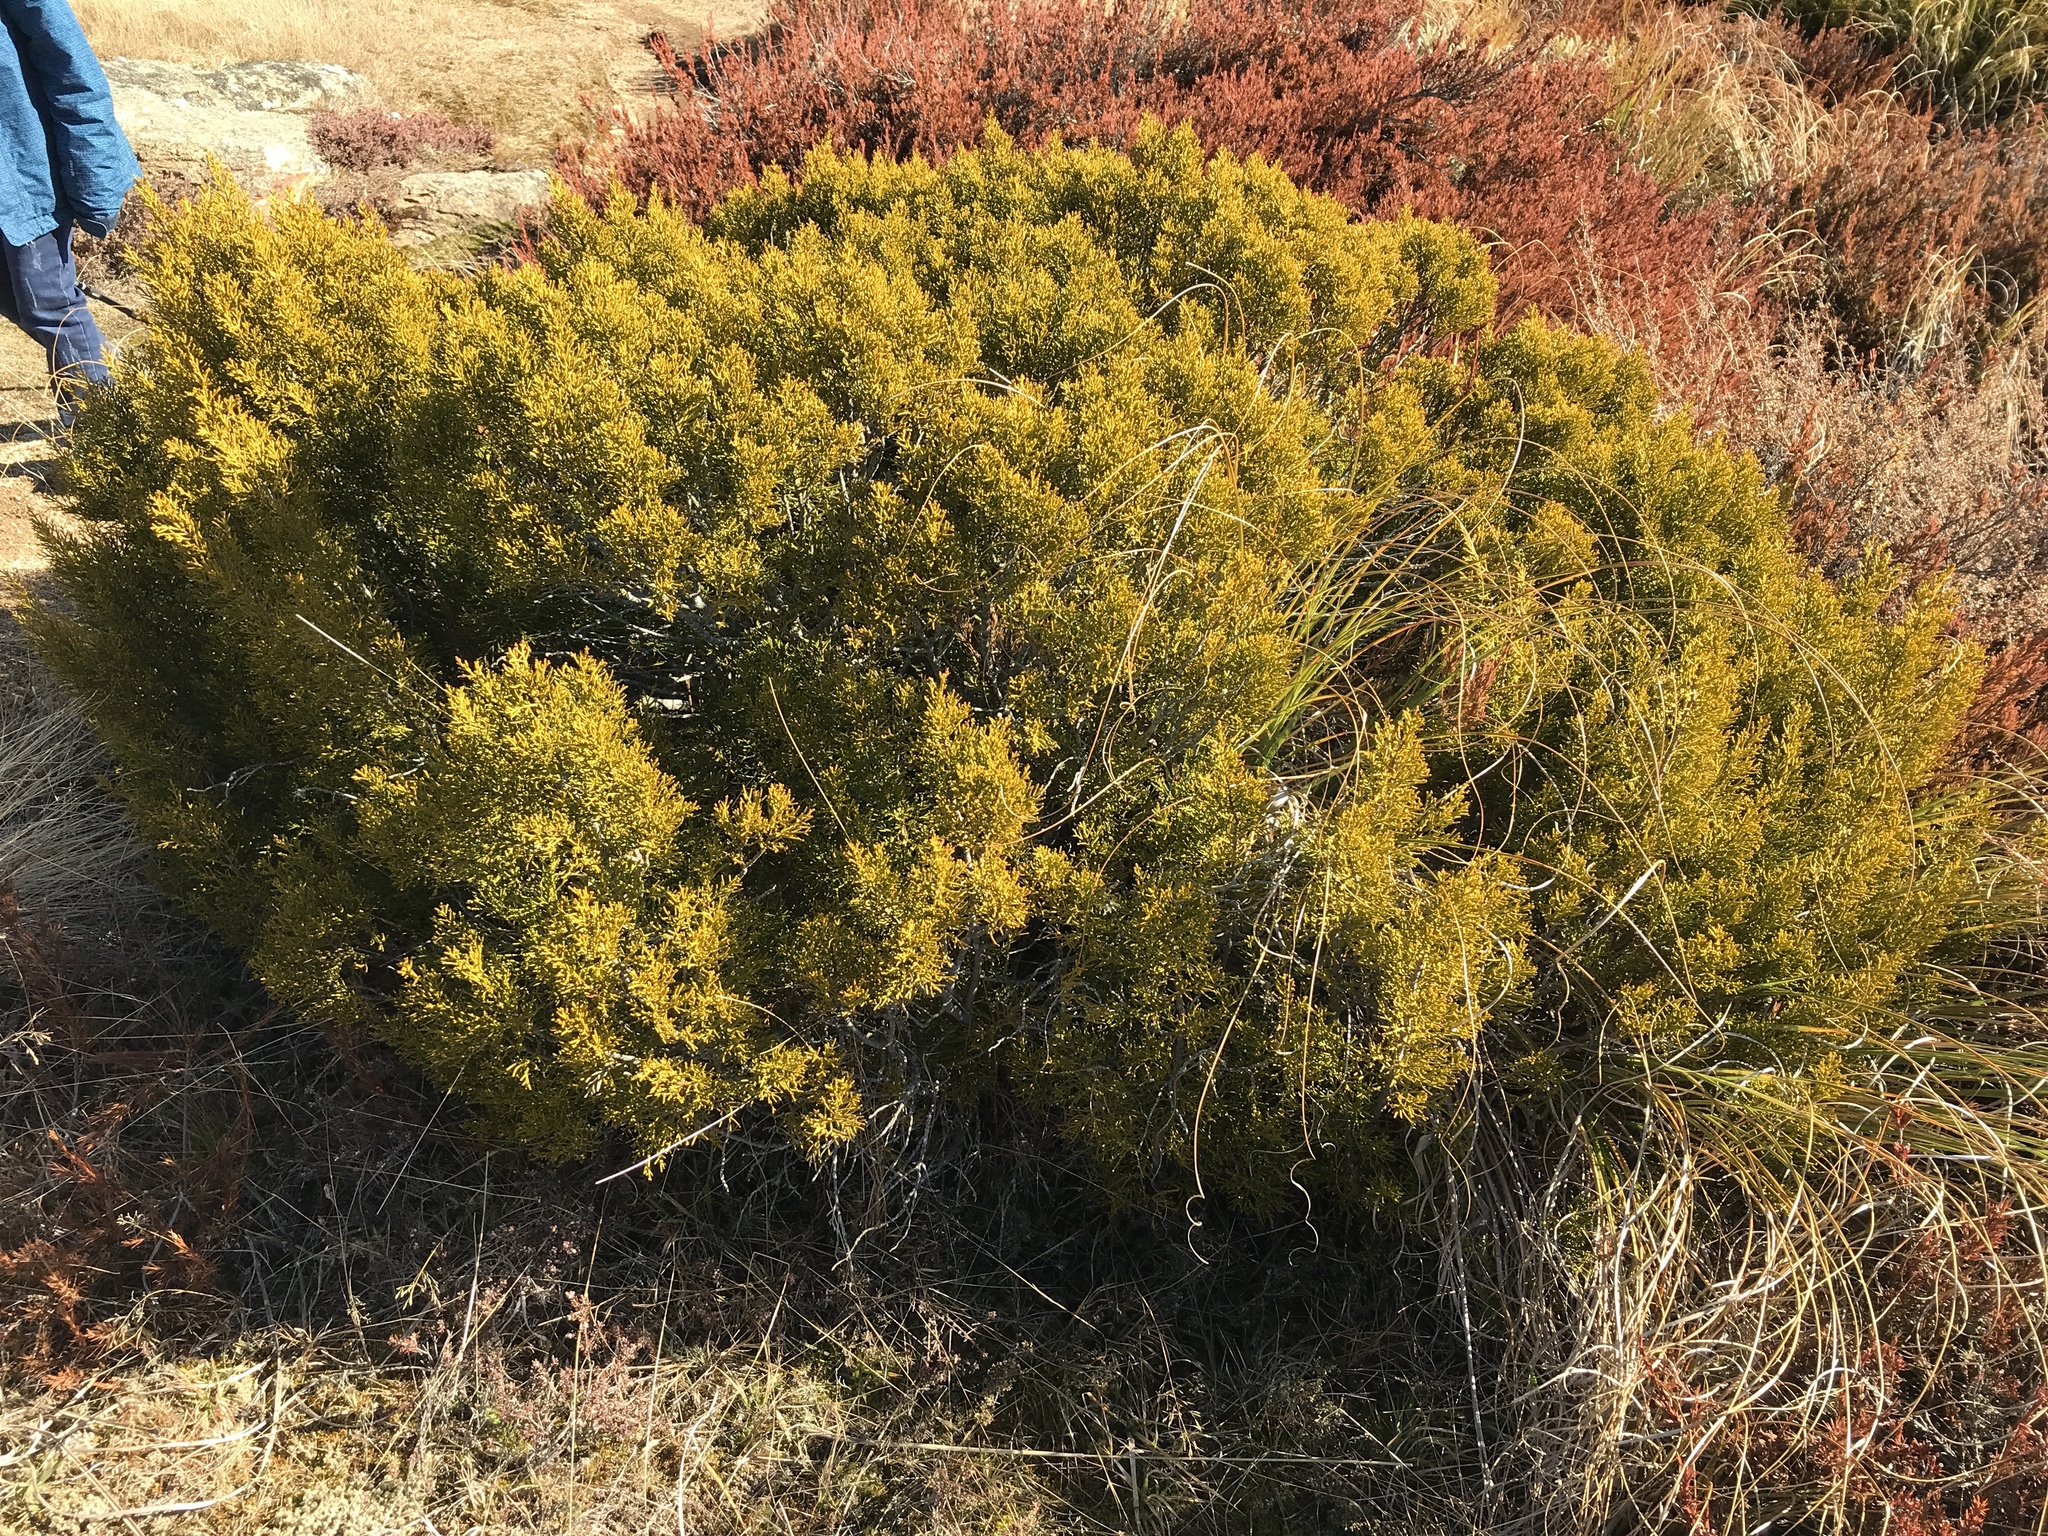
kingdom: Plantae
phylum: Tracheophyta
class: Pinopsida
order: Pinales
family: Podocarpaceae
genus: Halocarpus
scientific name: Halocarpus bidwillii
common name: Bog pine
